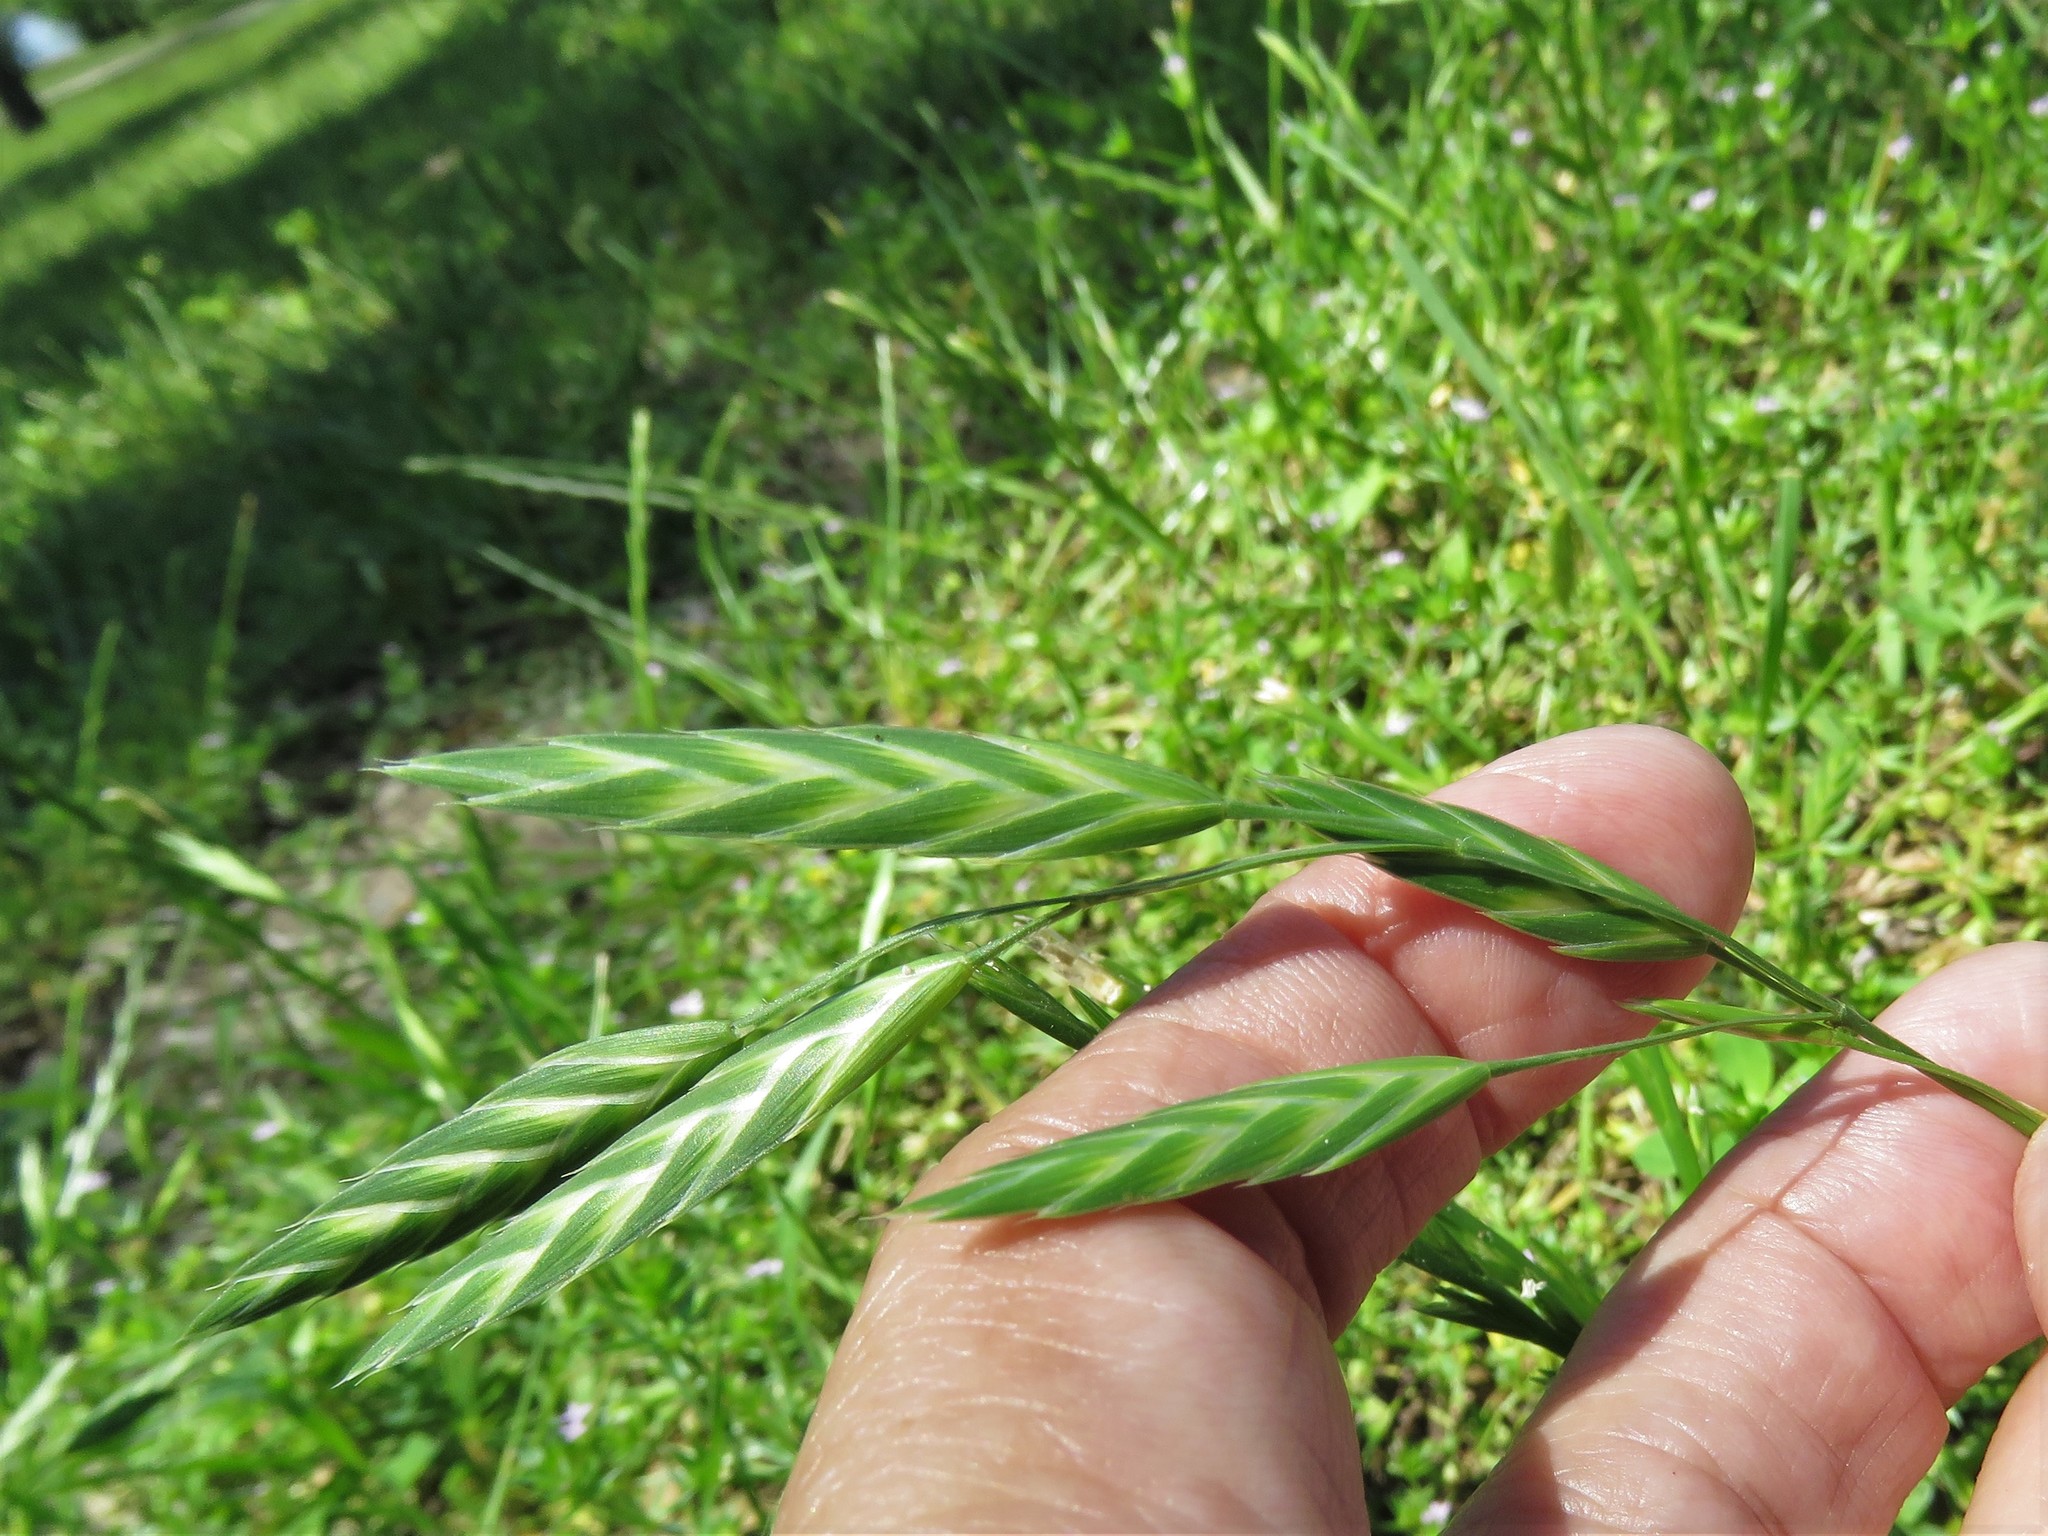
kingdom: Plantae
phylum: Tracheophyta
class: Liliopsida
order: Poales
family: Poaceae
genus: Bromus
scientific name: Bromus catharticus
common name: Rescuegrass
